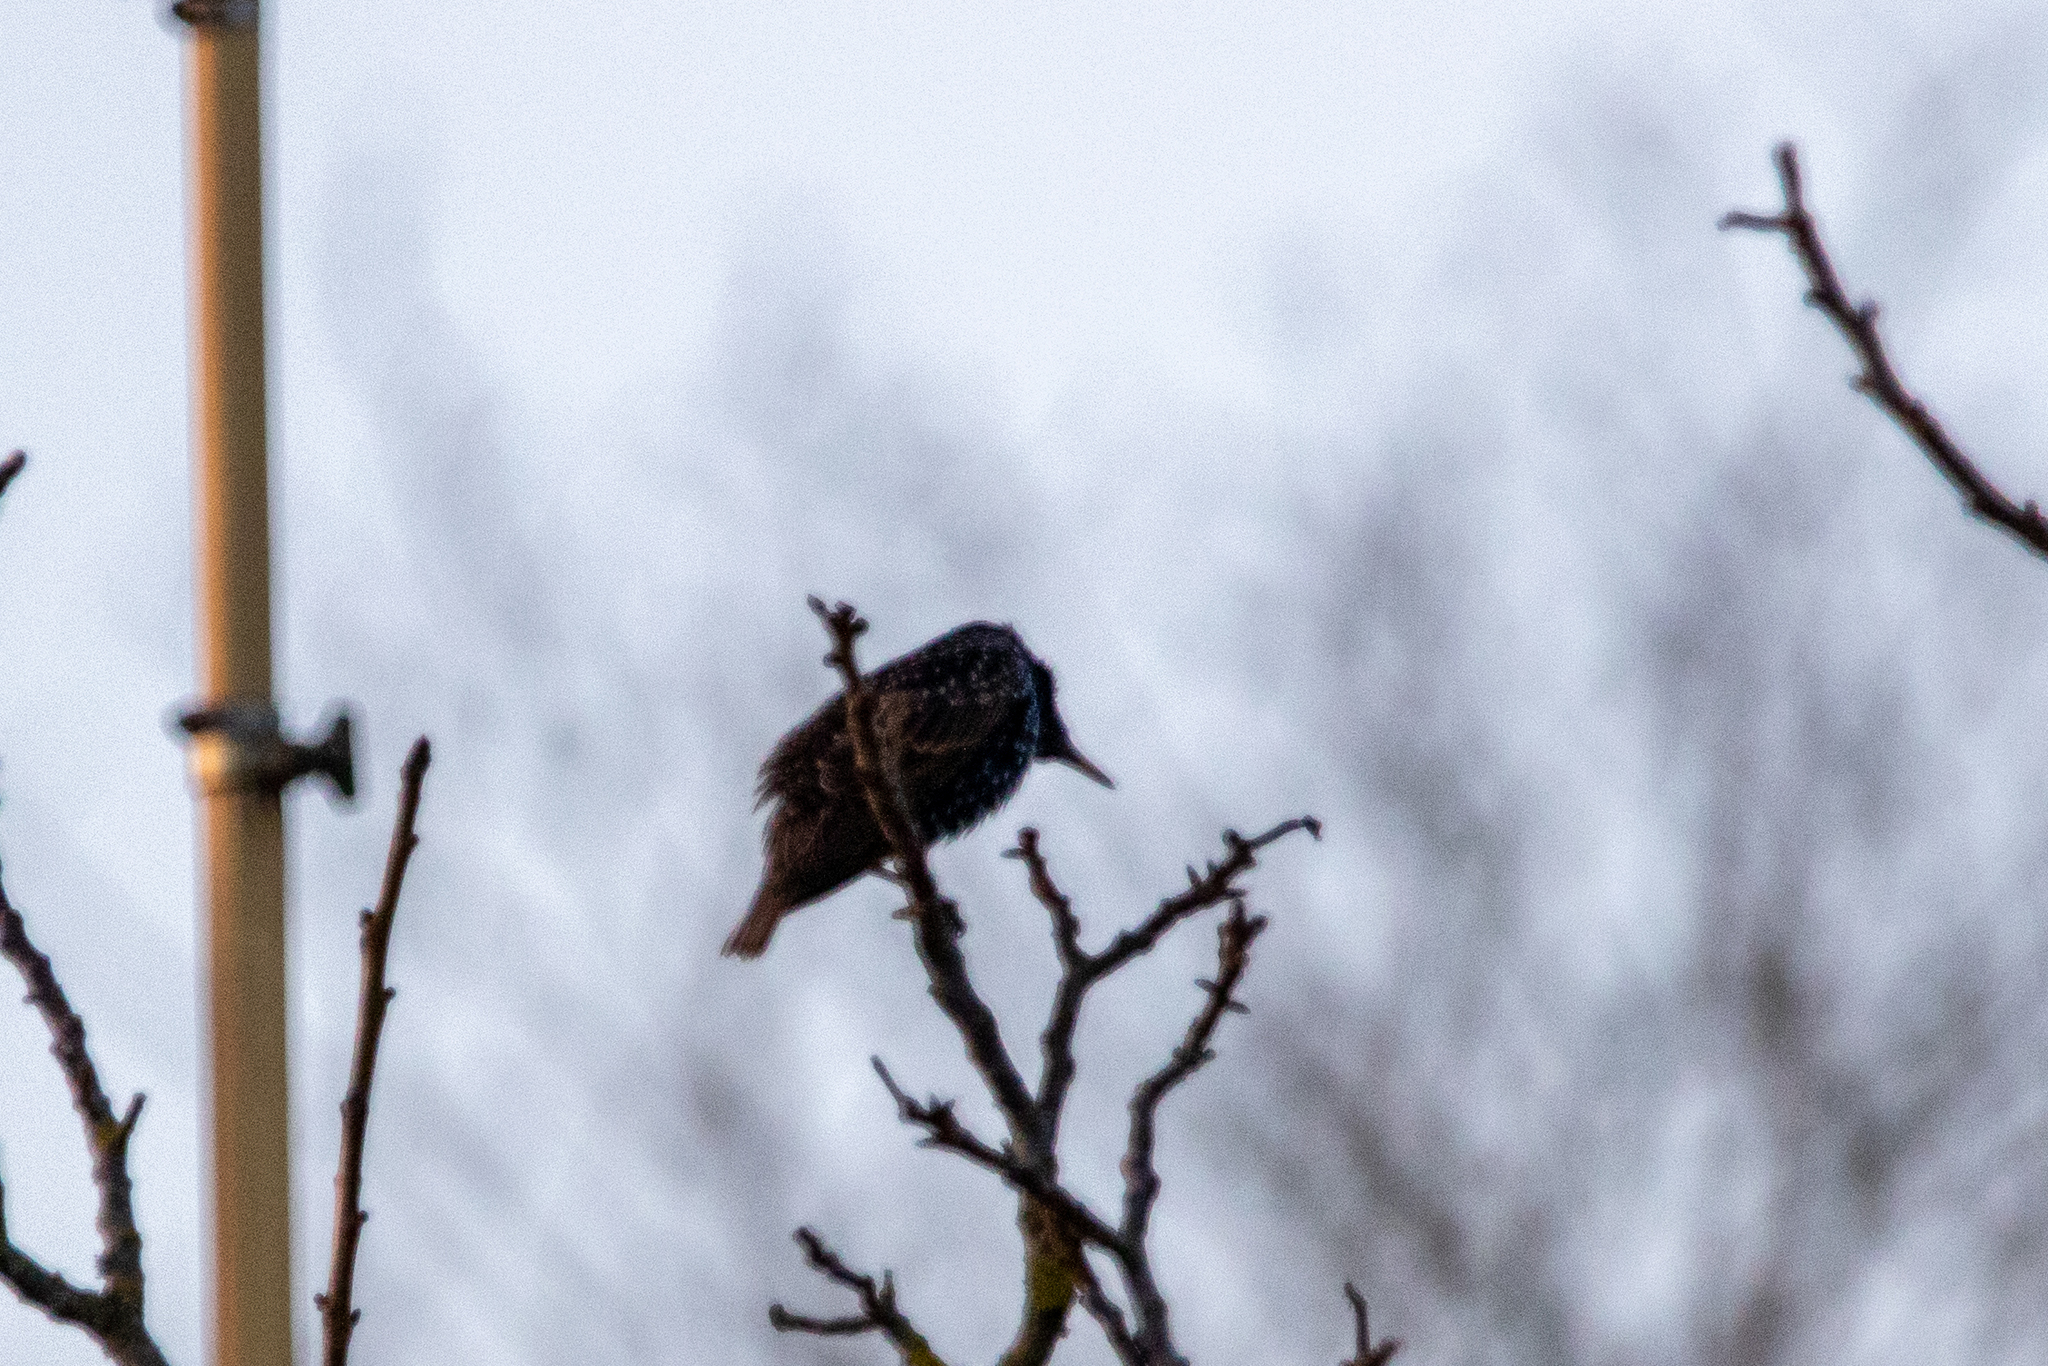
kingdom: Animalia
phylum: Chordata
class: Aves
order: Passeriformes
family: Sturnidae
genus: Sturnus
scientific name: Sturnus vulgaris
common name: Common starling
